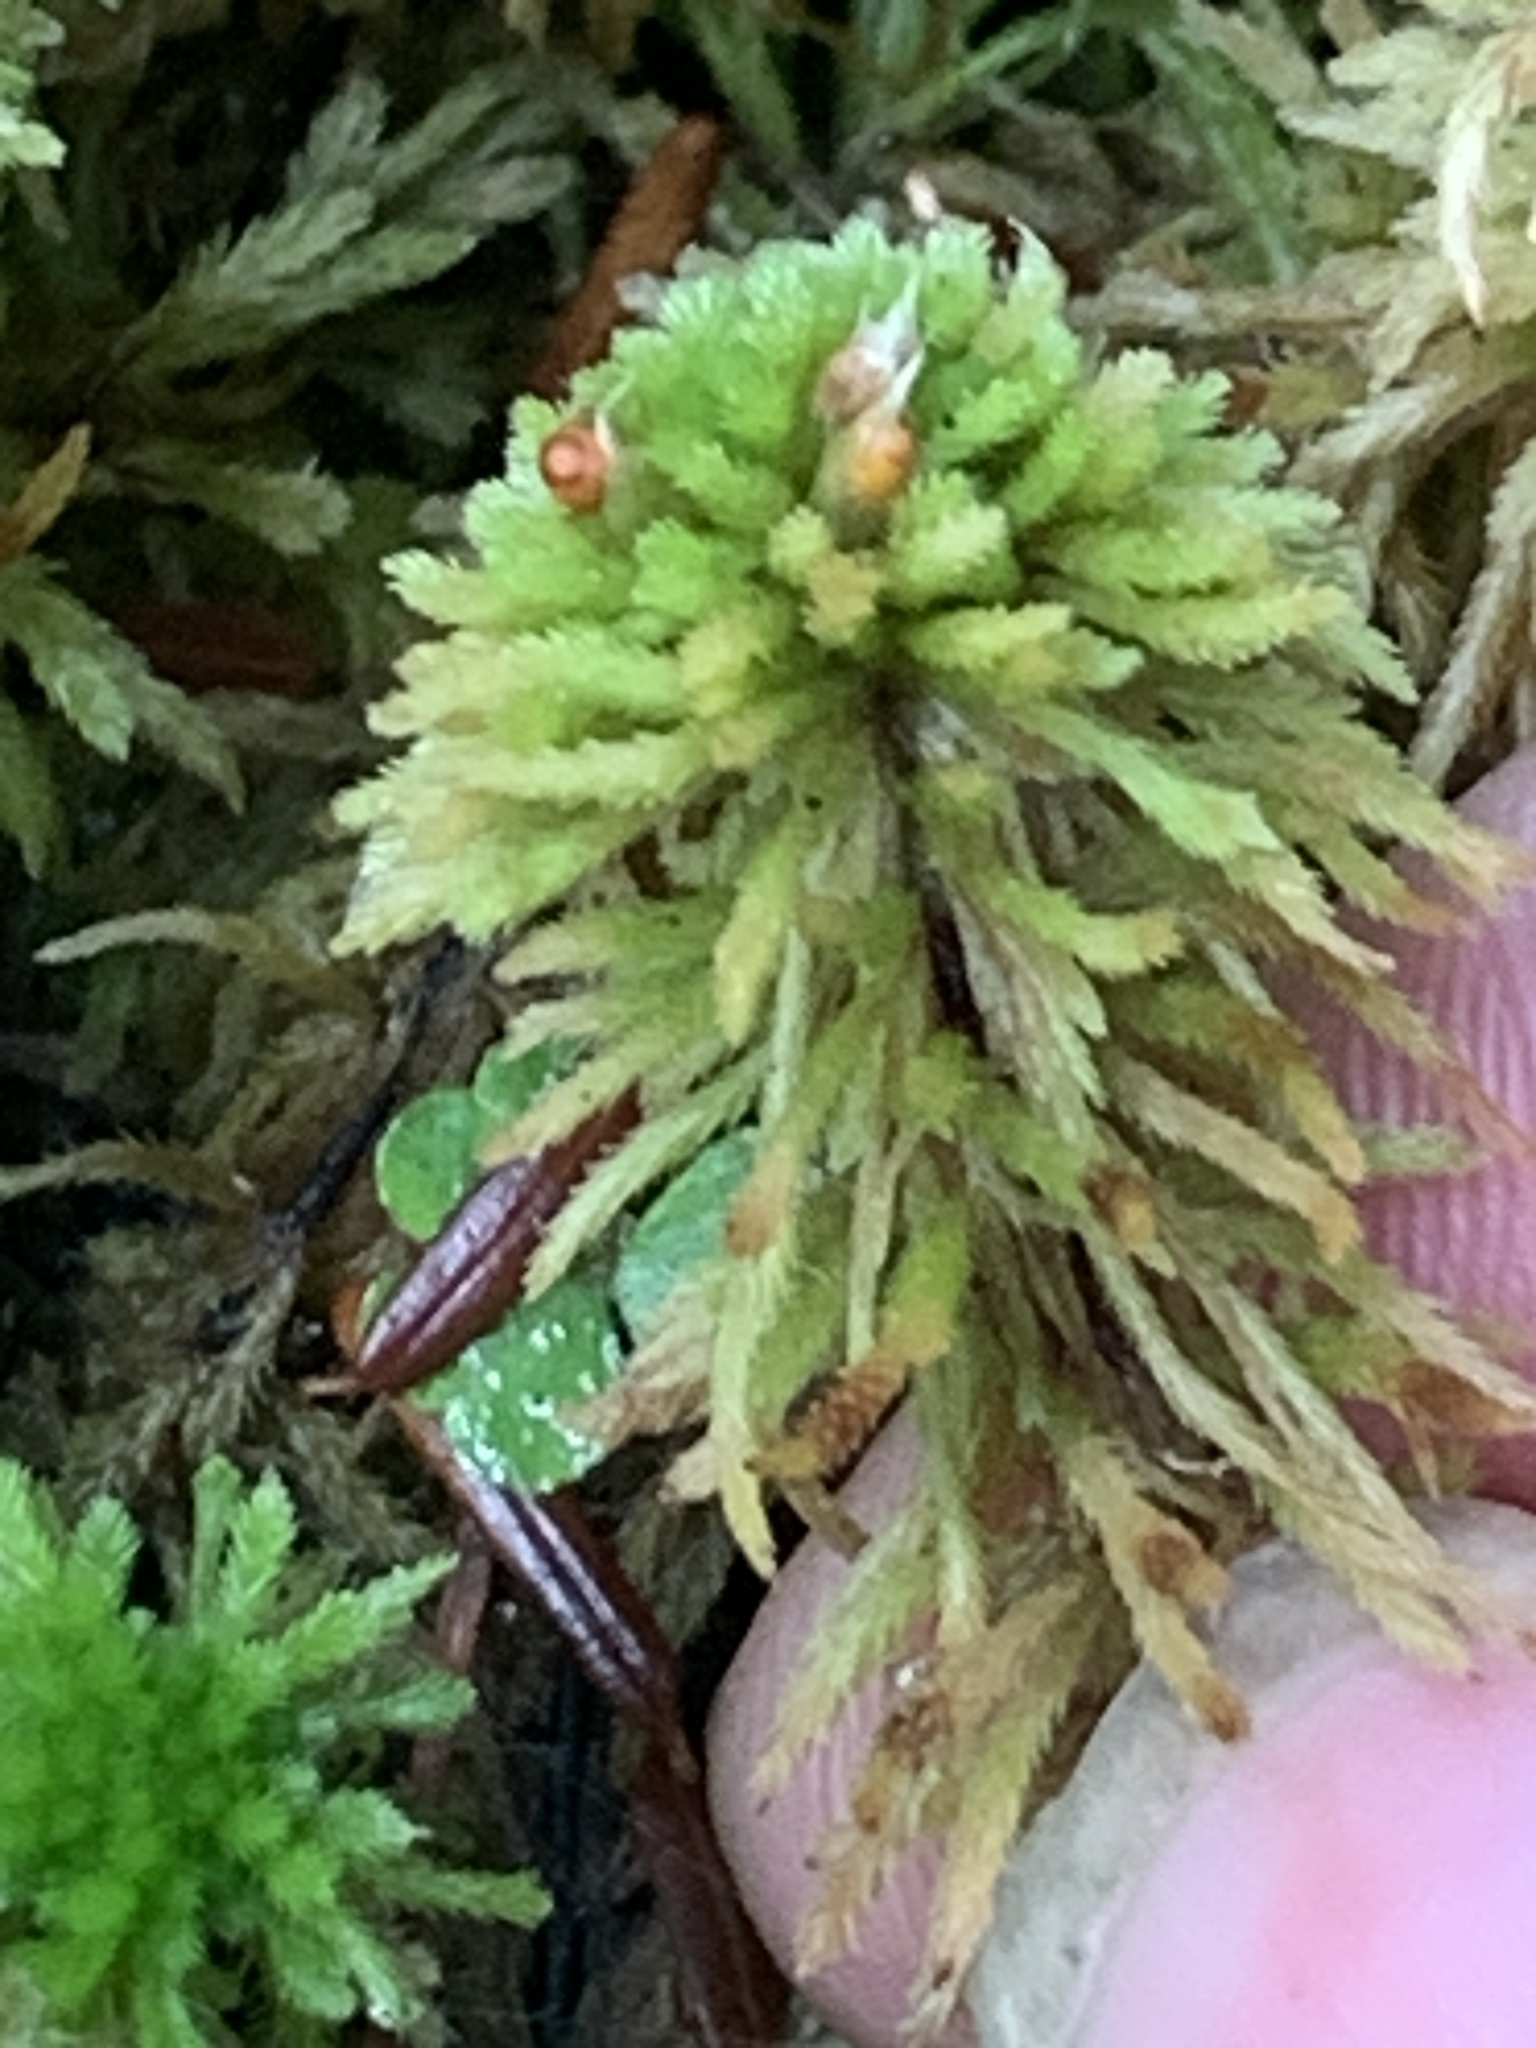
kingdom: Plantae
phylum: Bryophyta
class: Sphagnopsida
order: Sphagnales
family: Sphagnaceae
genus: Sphagnum
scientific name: Sphagnum wulfianum
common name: Wulf's peat moss
